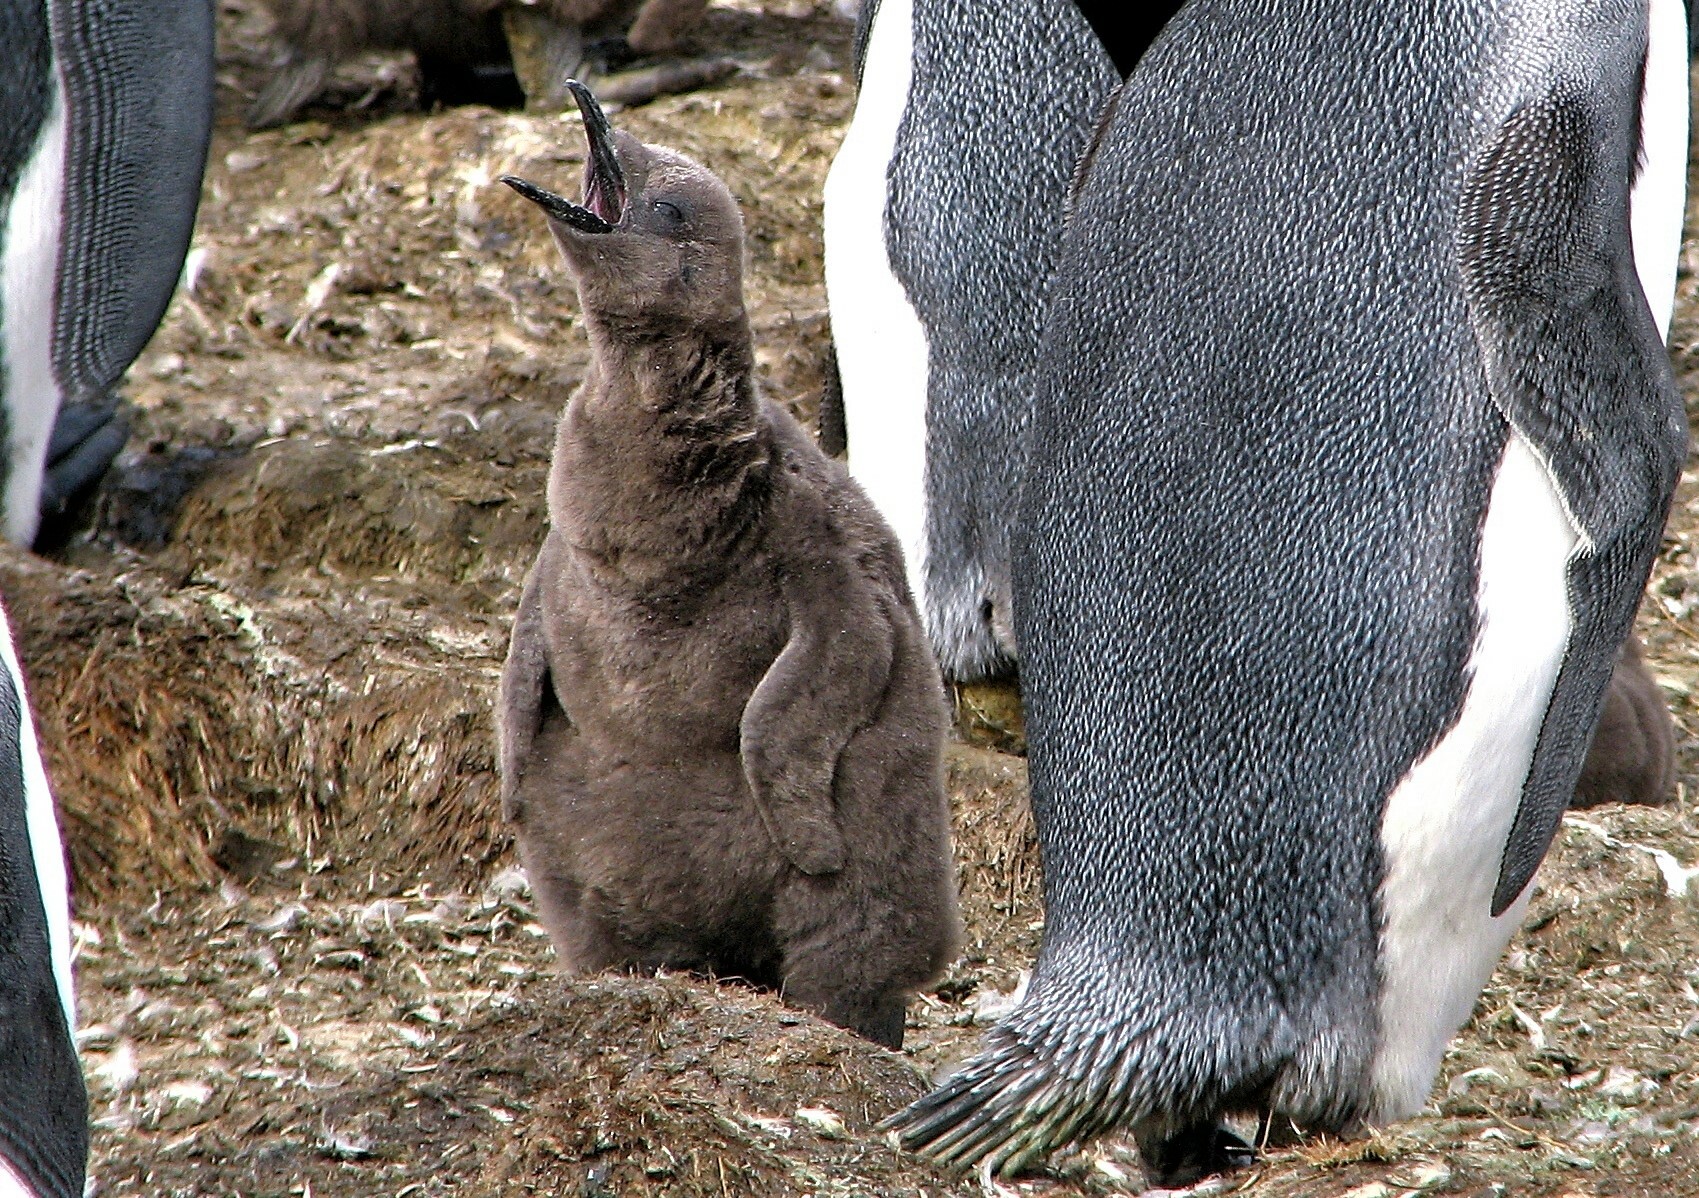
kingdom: Animalia
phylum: Chordata
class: Aves
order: Sphenisciformes
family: Spheniscidae
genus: Aptenodytes
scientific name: Aptenodytes patagonicus
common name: King penguin
